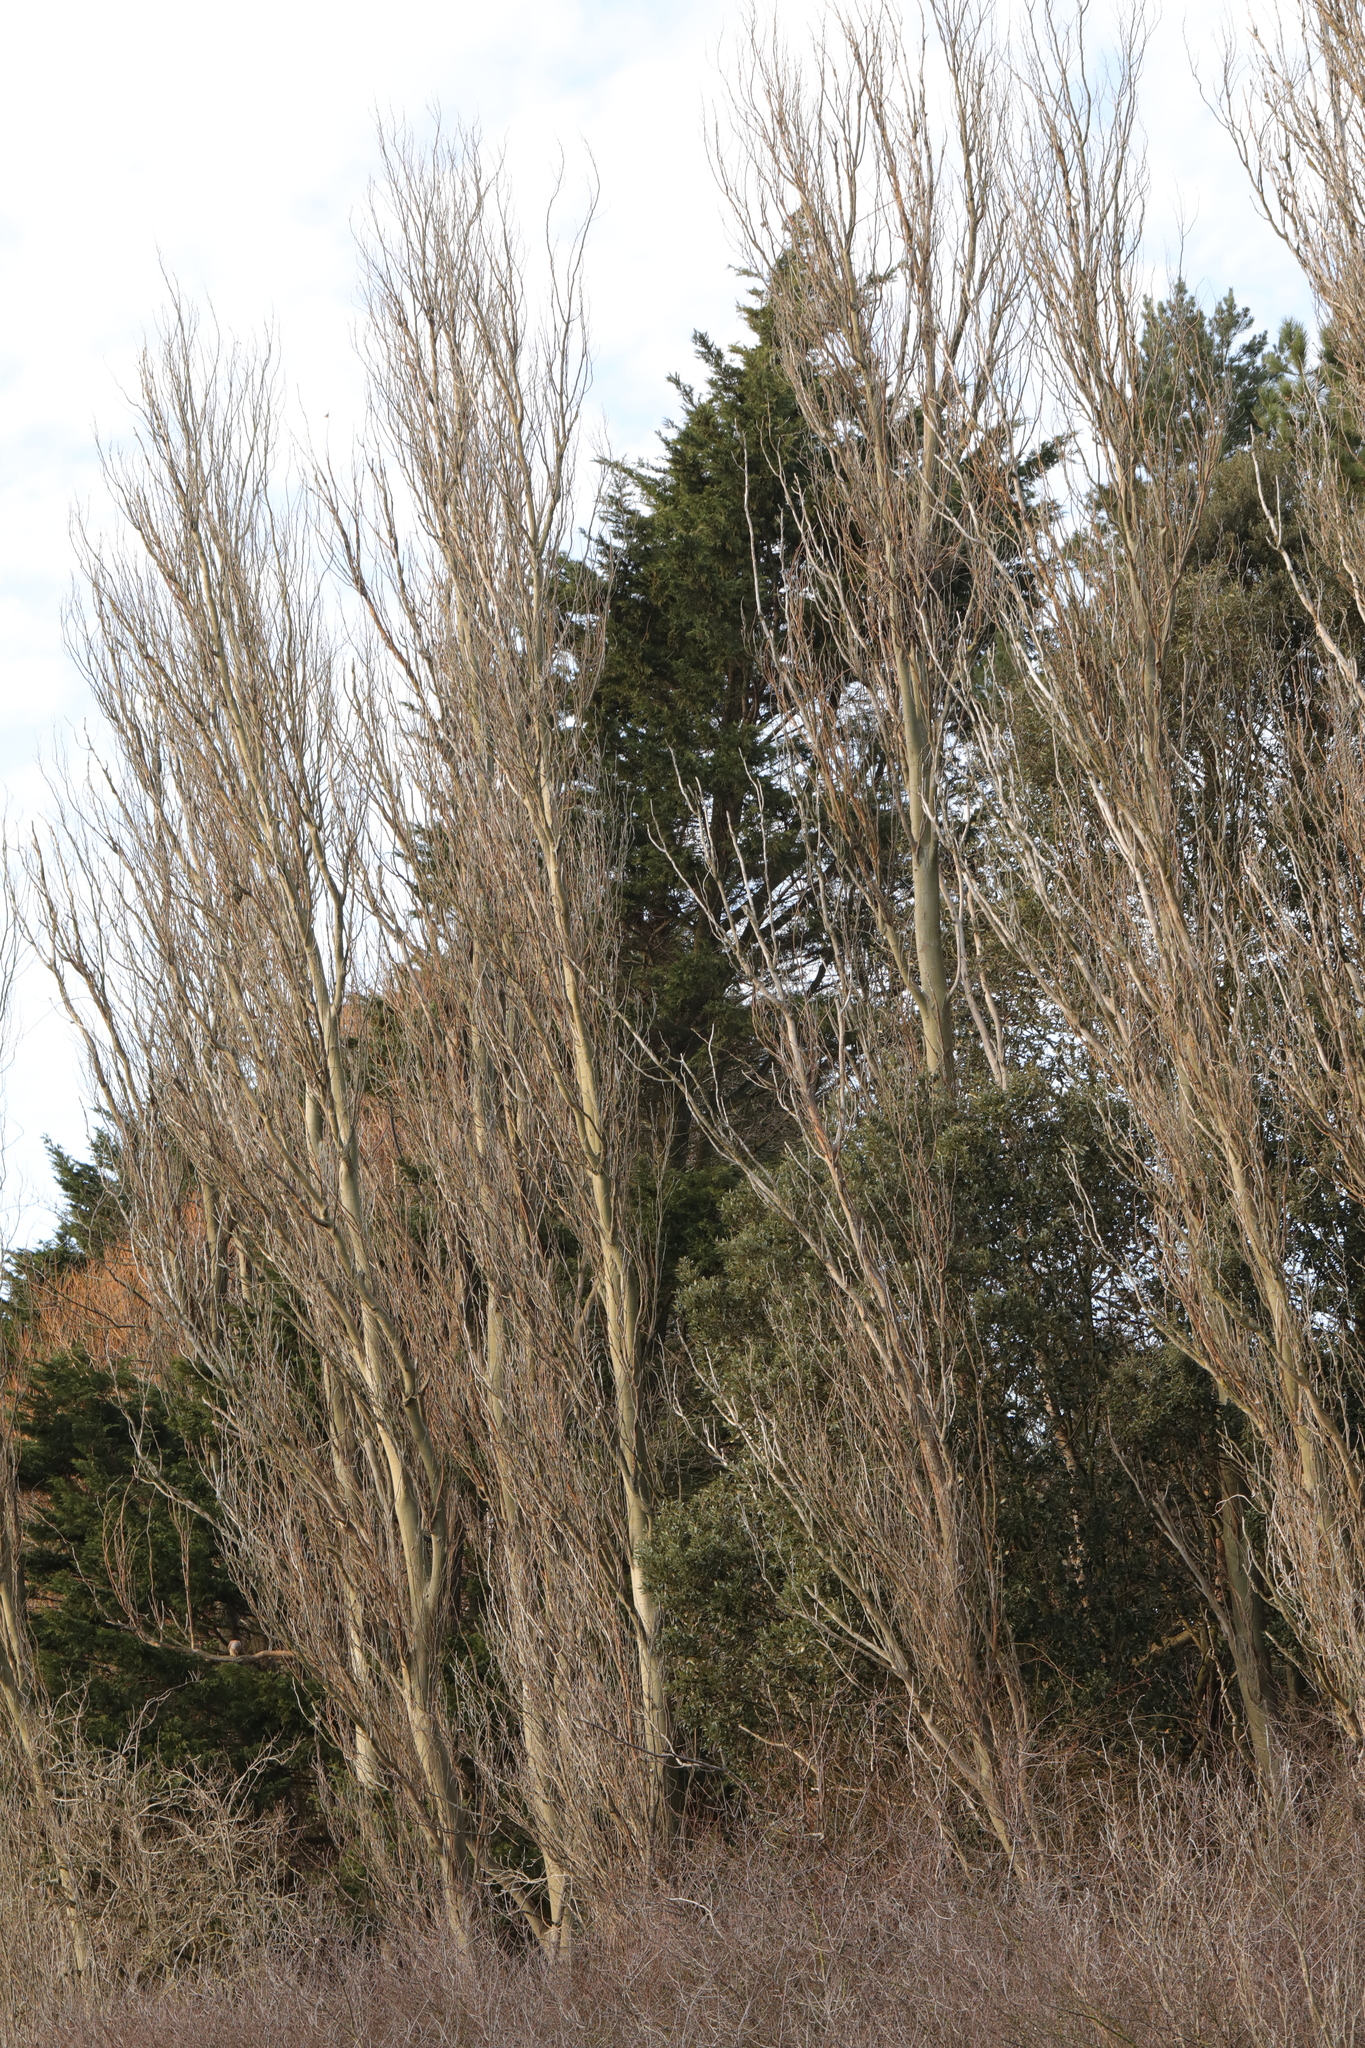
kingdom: Plantae
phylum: Tracheophyta
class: Magnoliopsida
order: Malpighiales
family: Salicaceae
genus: Populus
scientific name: Populus nigra
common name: Black poplar
